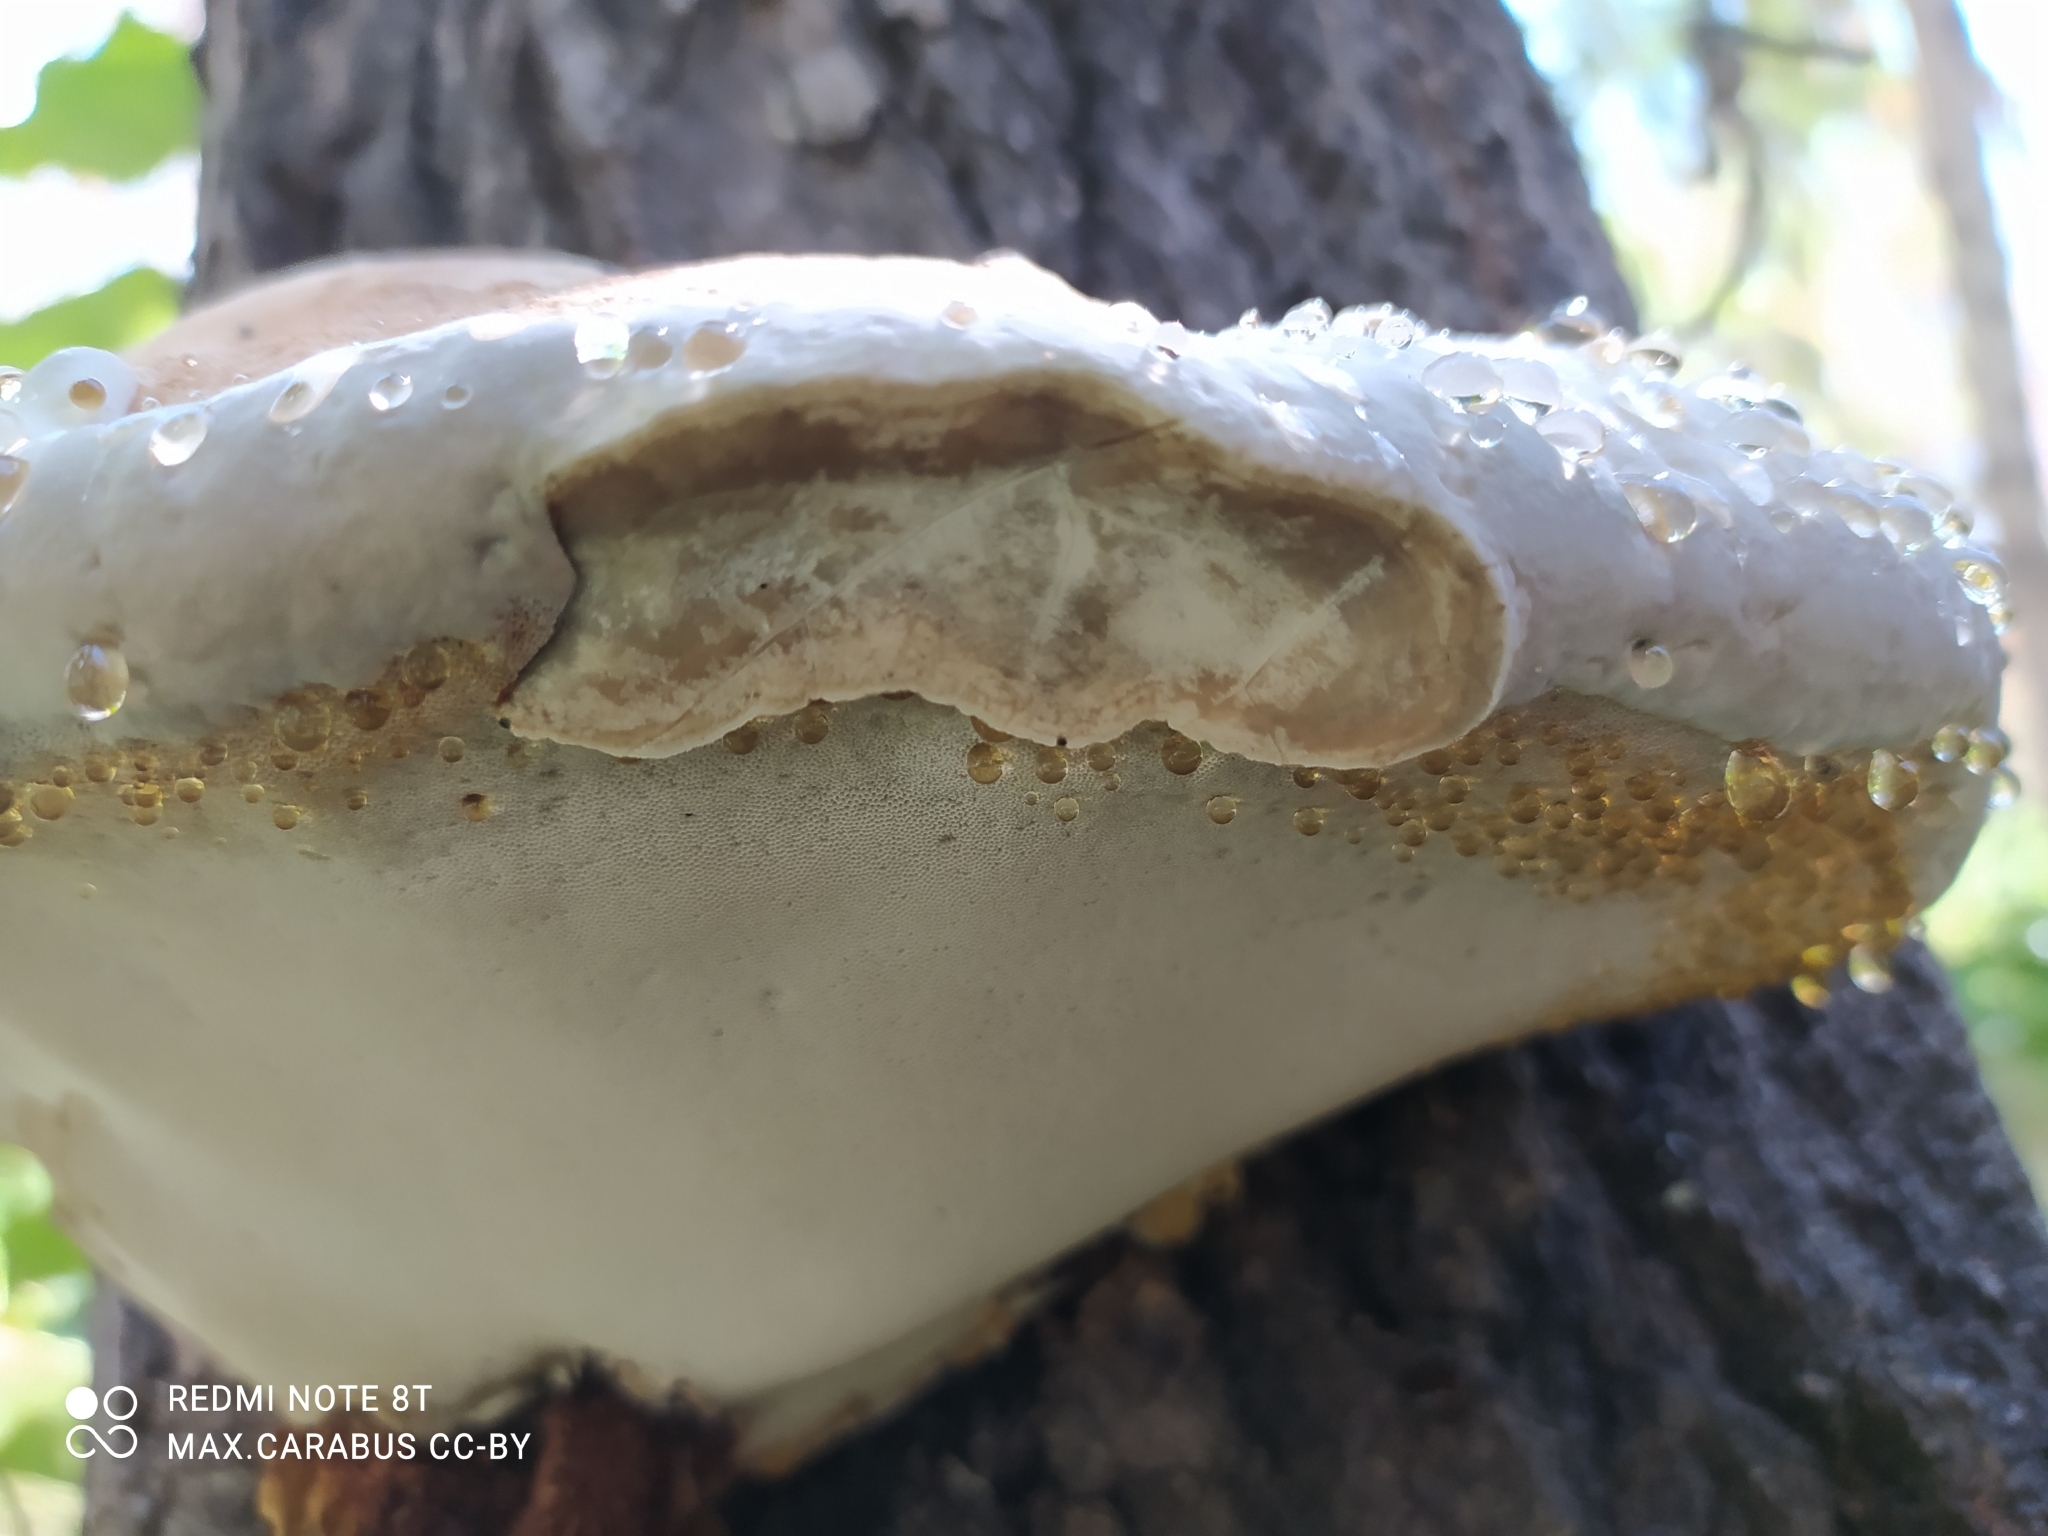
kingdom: Fungi
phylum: Basidiomycota
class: Agaricomycetes
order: Polyporales
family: Polyporaceae
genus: Fomes
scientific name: Fomes fomentarius
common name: Hoof fungus
